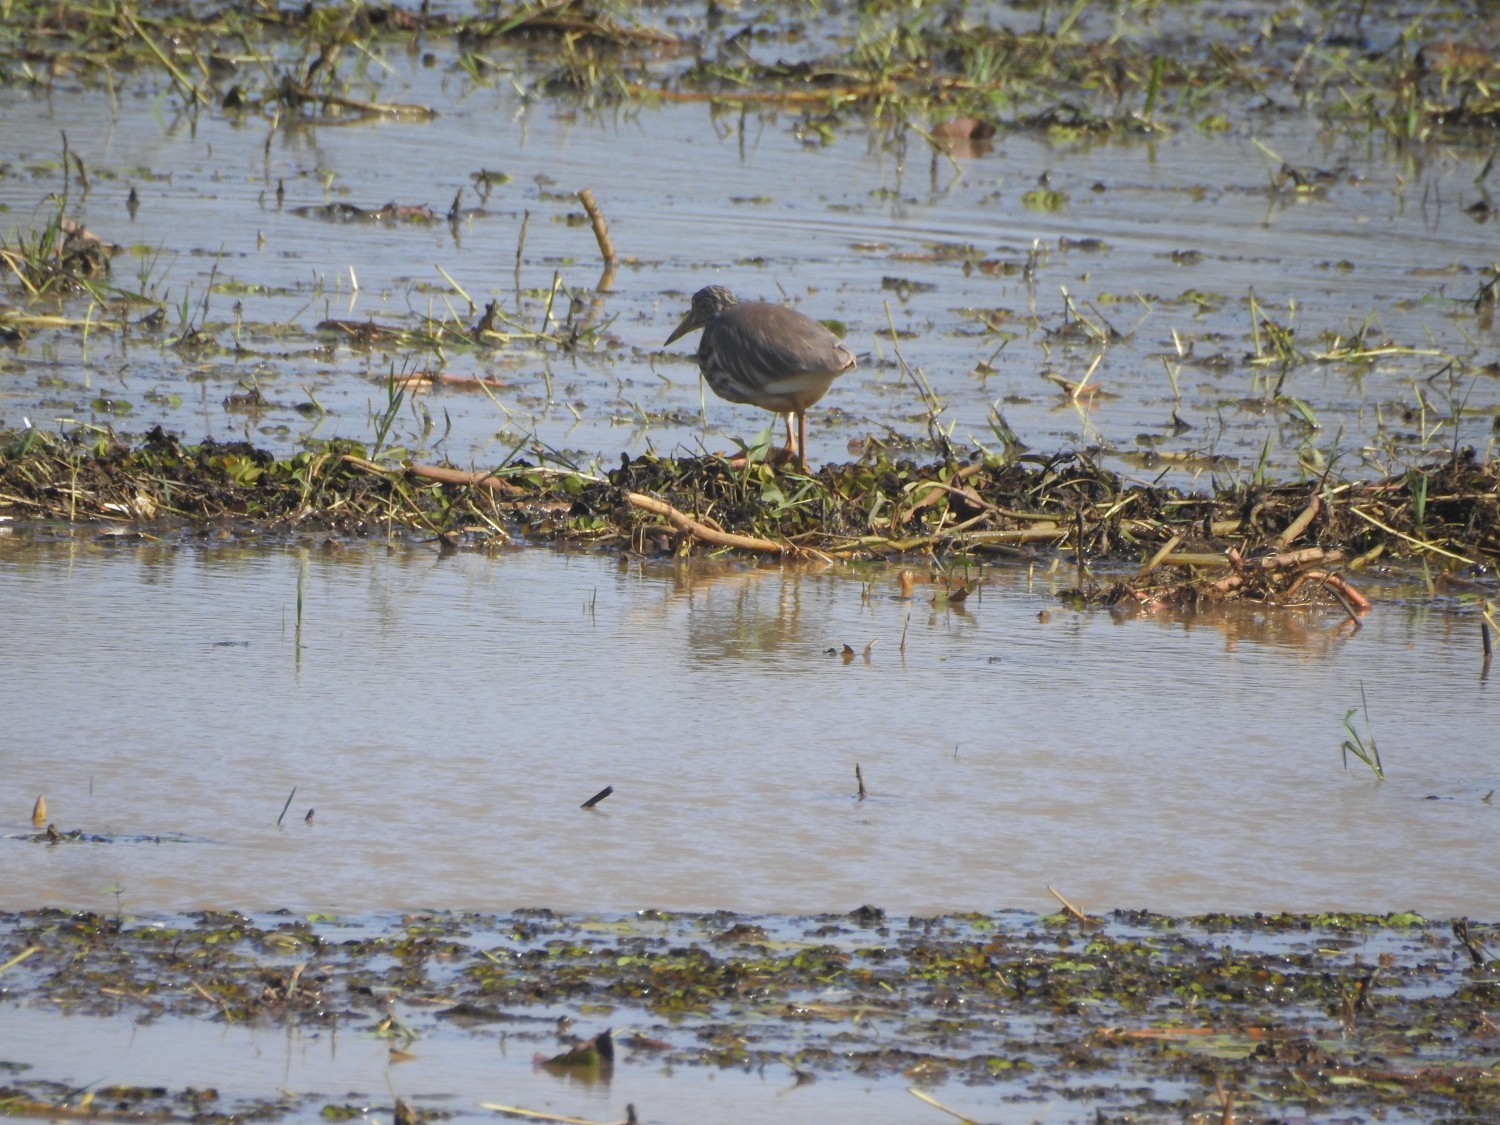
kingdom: Animalia
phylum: Chordata
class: Aves
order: Pelecaniformes
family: Ardeidae
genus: Ardeola
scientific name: Ardeola grayii
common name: Indian pond heron
